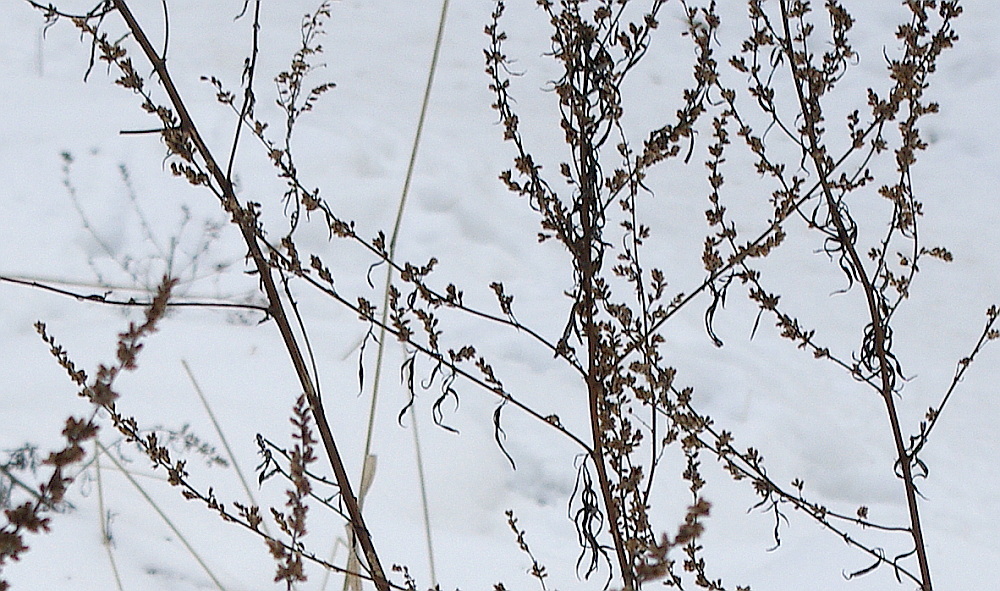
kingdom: Plantae
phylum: Tracheophyta
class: Magnoliopsida
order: Asterales
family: Asteraceae
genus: Artemisia
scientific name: Artemisia vulgaris
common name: Mugwort
